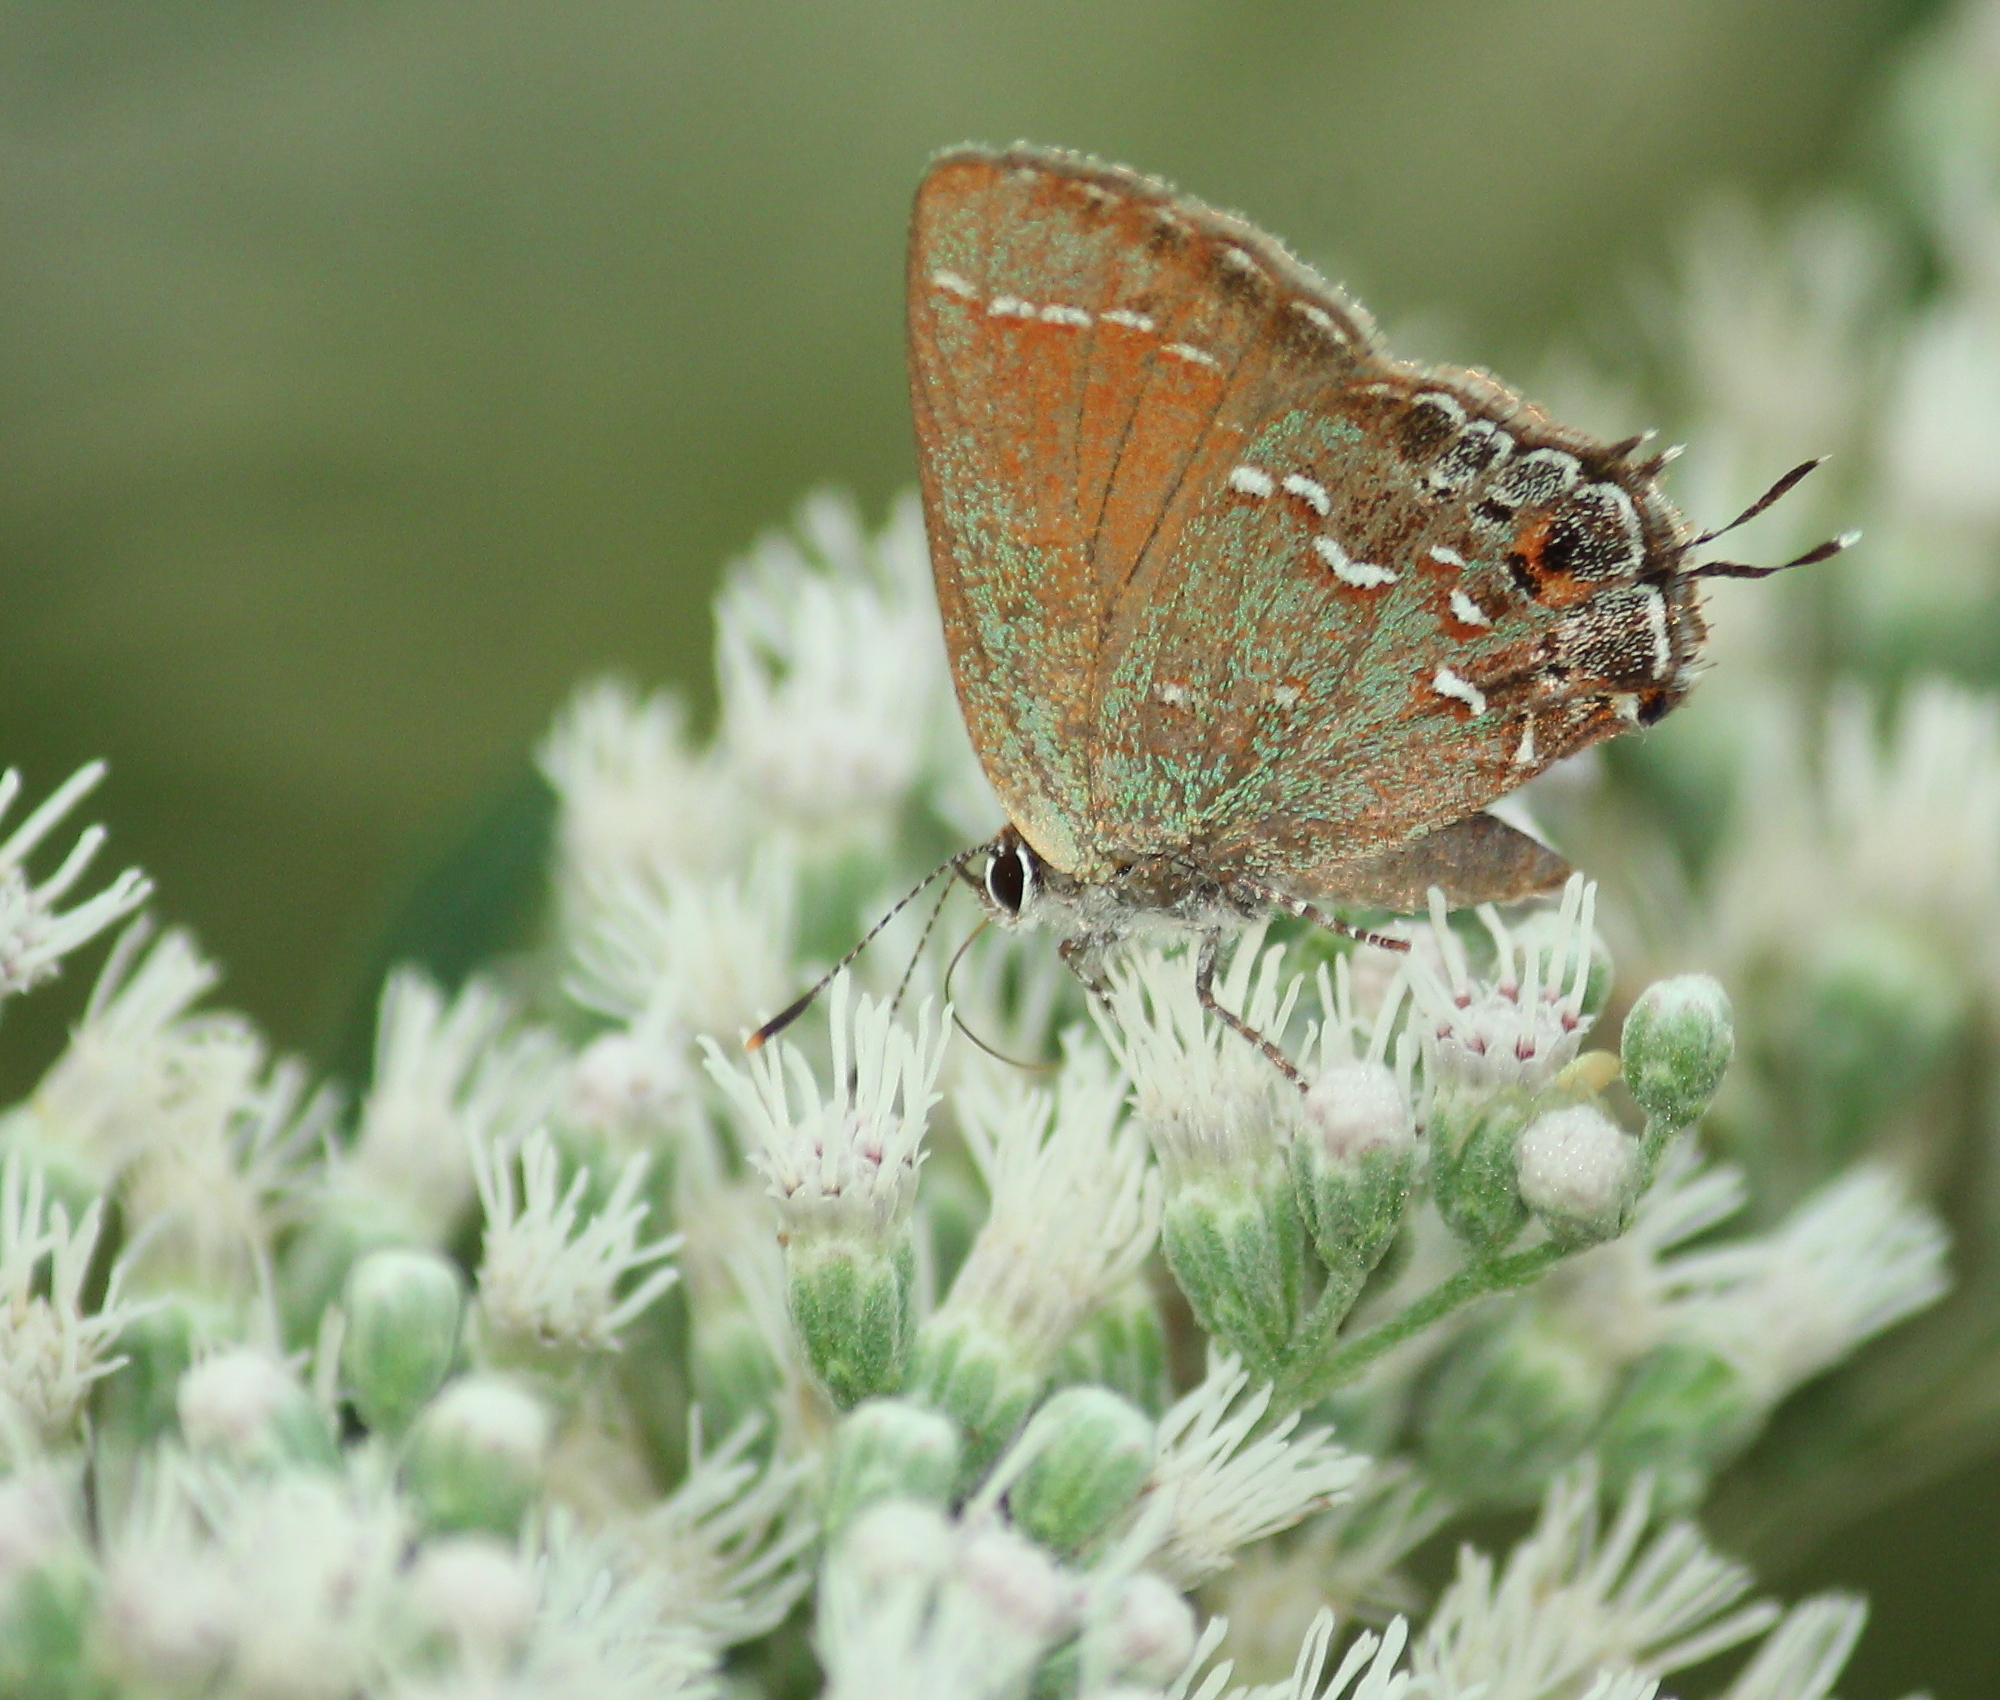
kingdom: Animalia
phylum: Arthropoda
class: Insecta
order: Lepidoptera
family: Lycaenidae
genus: Mitoura
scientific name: Mitoura gryneus
